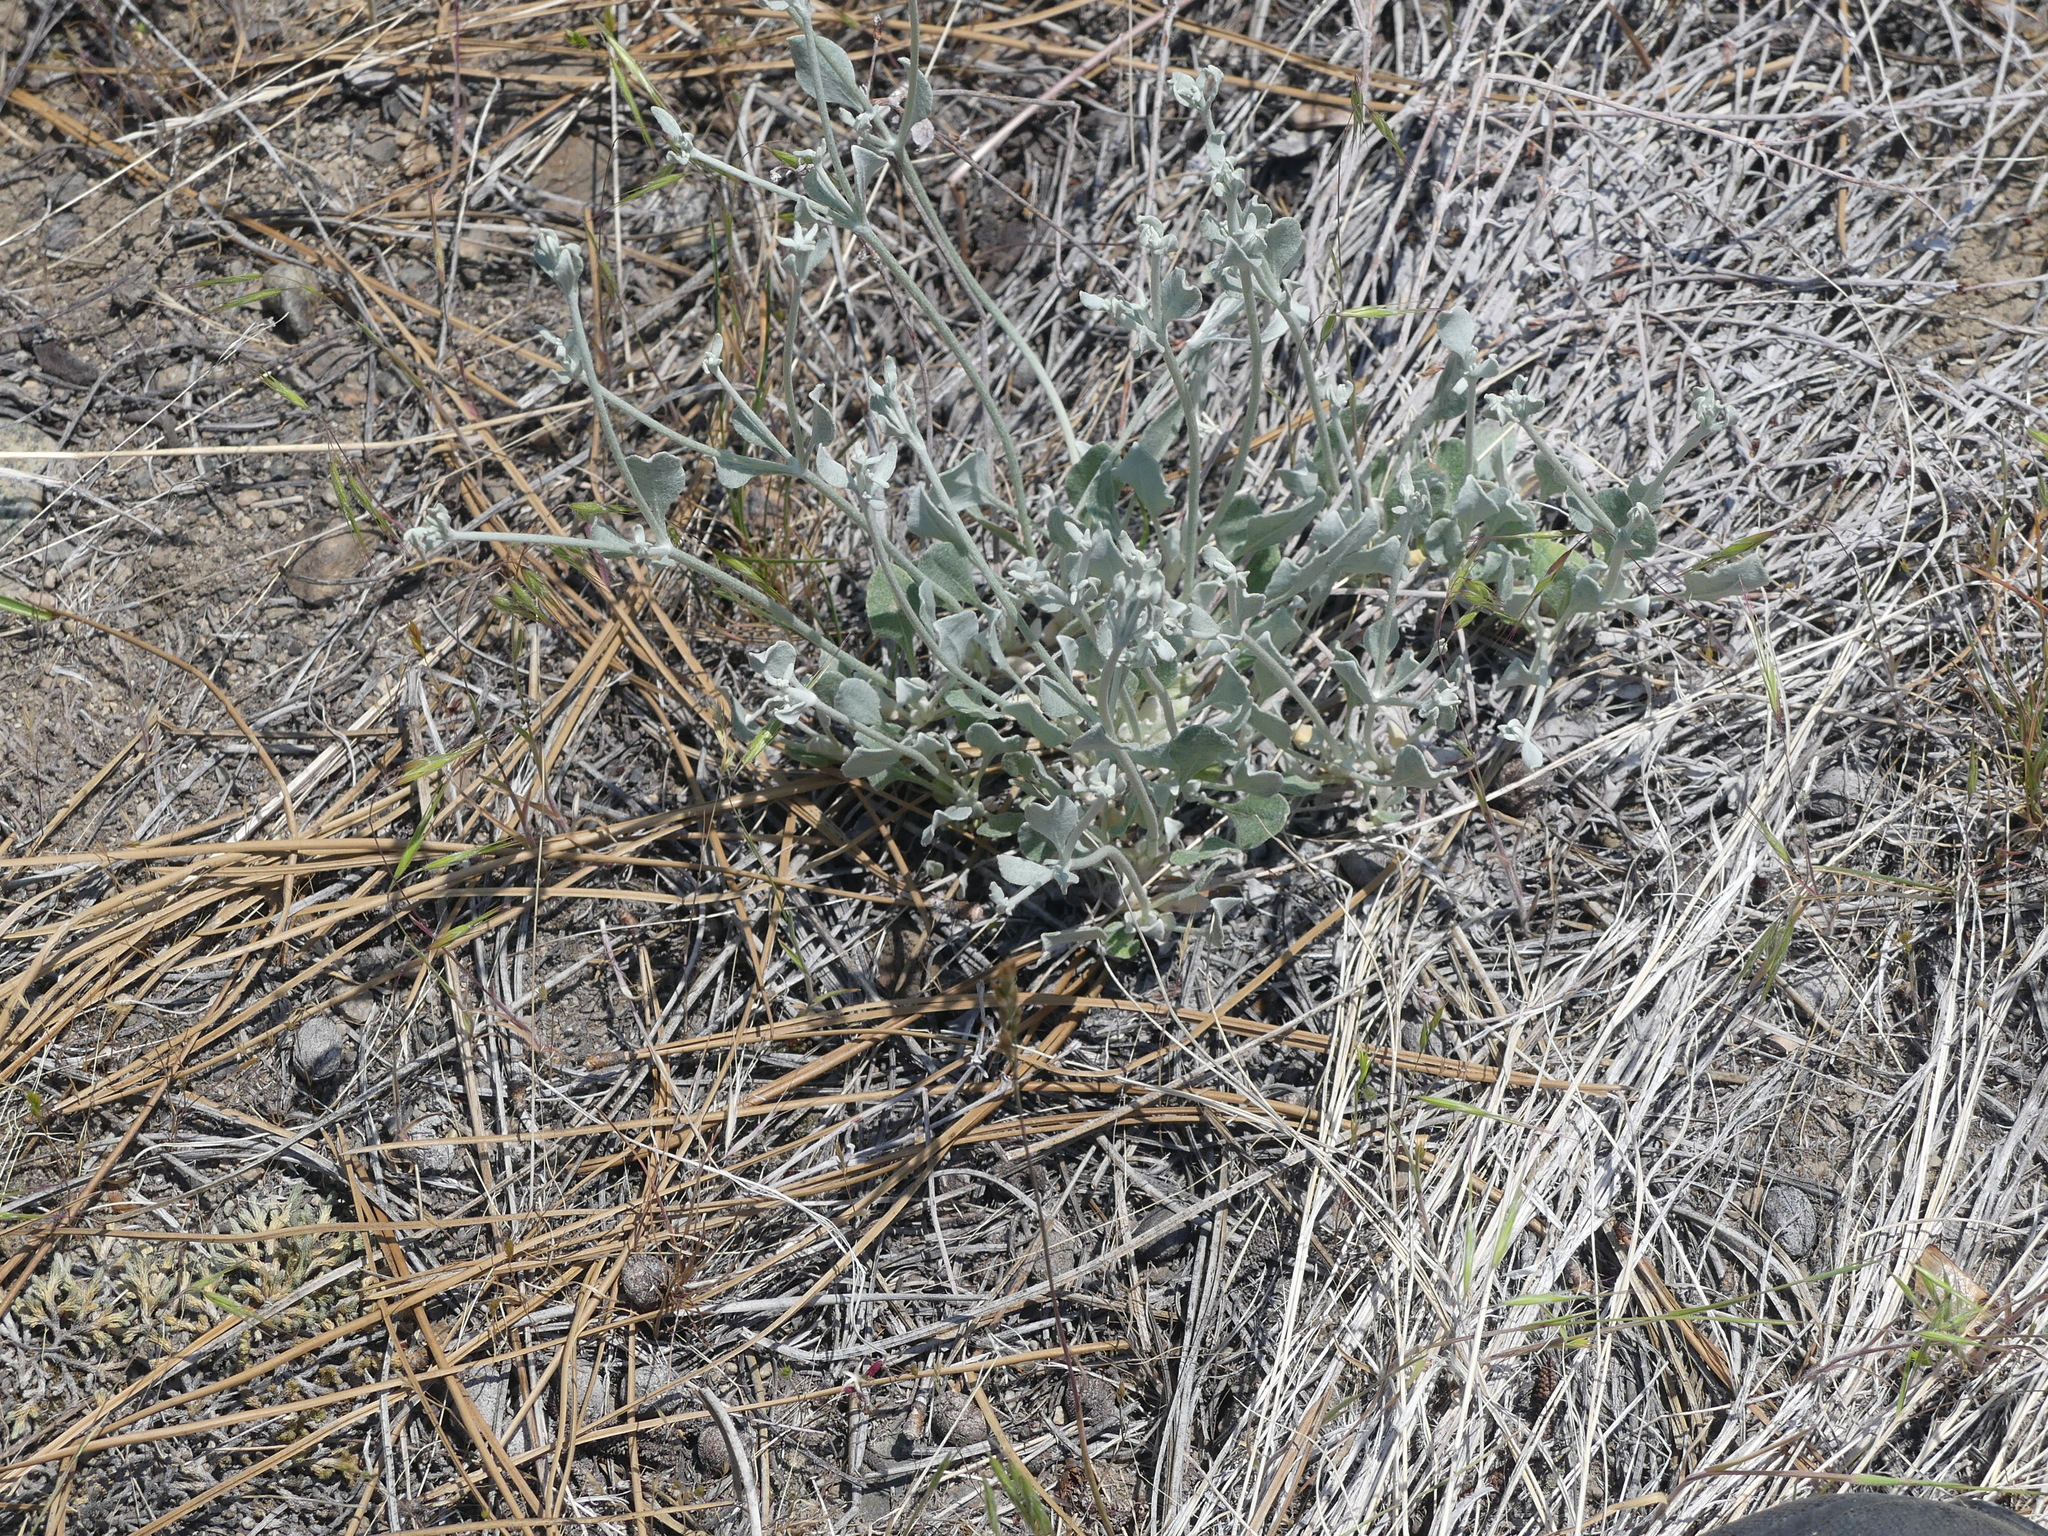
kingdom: Plantae
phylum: Tracheophyta
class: Magnoliopsida
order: Caryophyllales
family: Polygonaceae
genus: Eriogonum
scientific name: Eriogonum niveum
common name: Snow wild buckwheat
